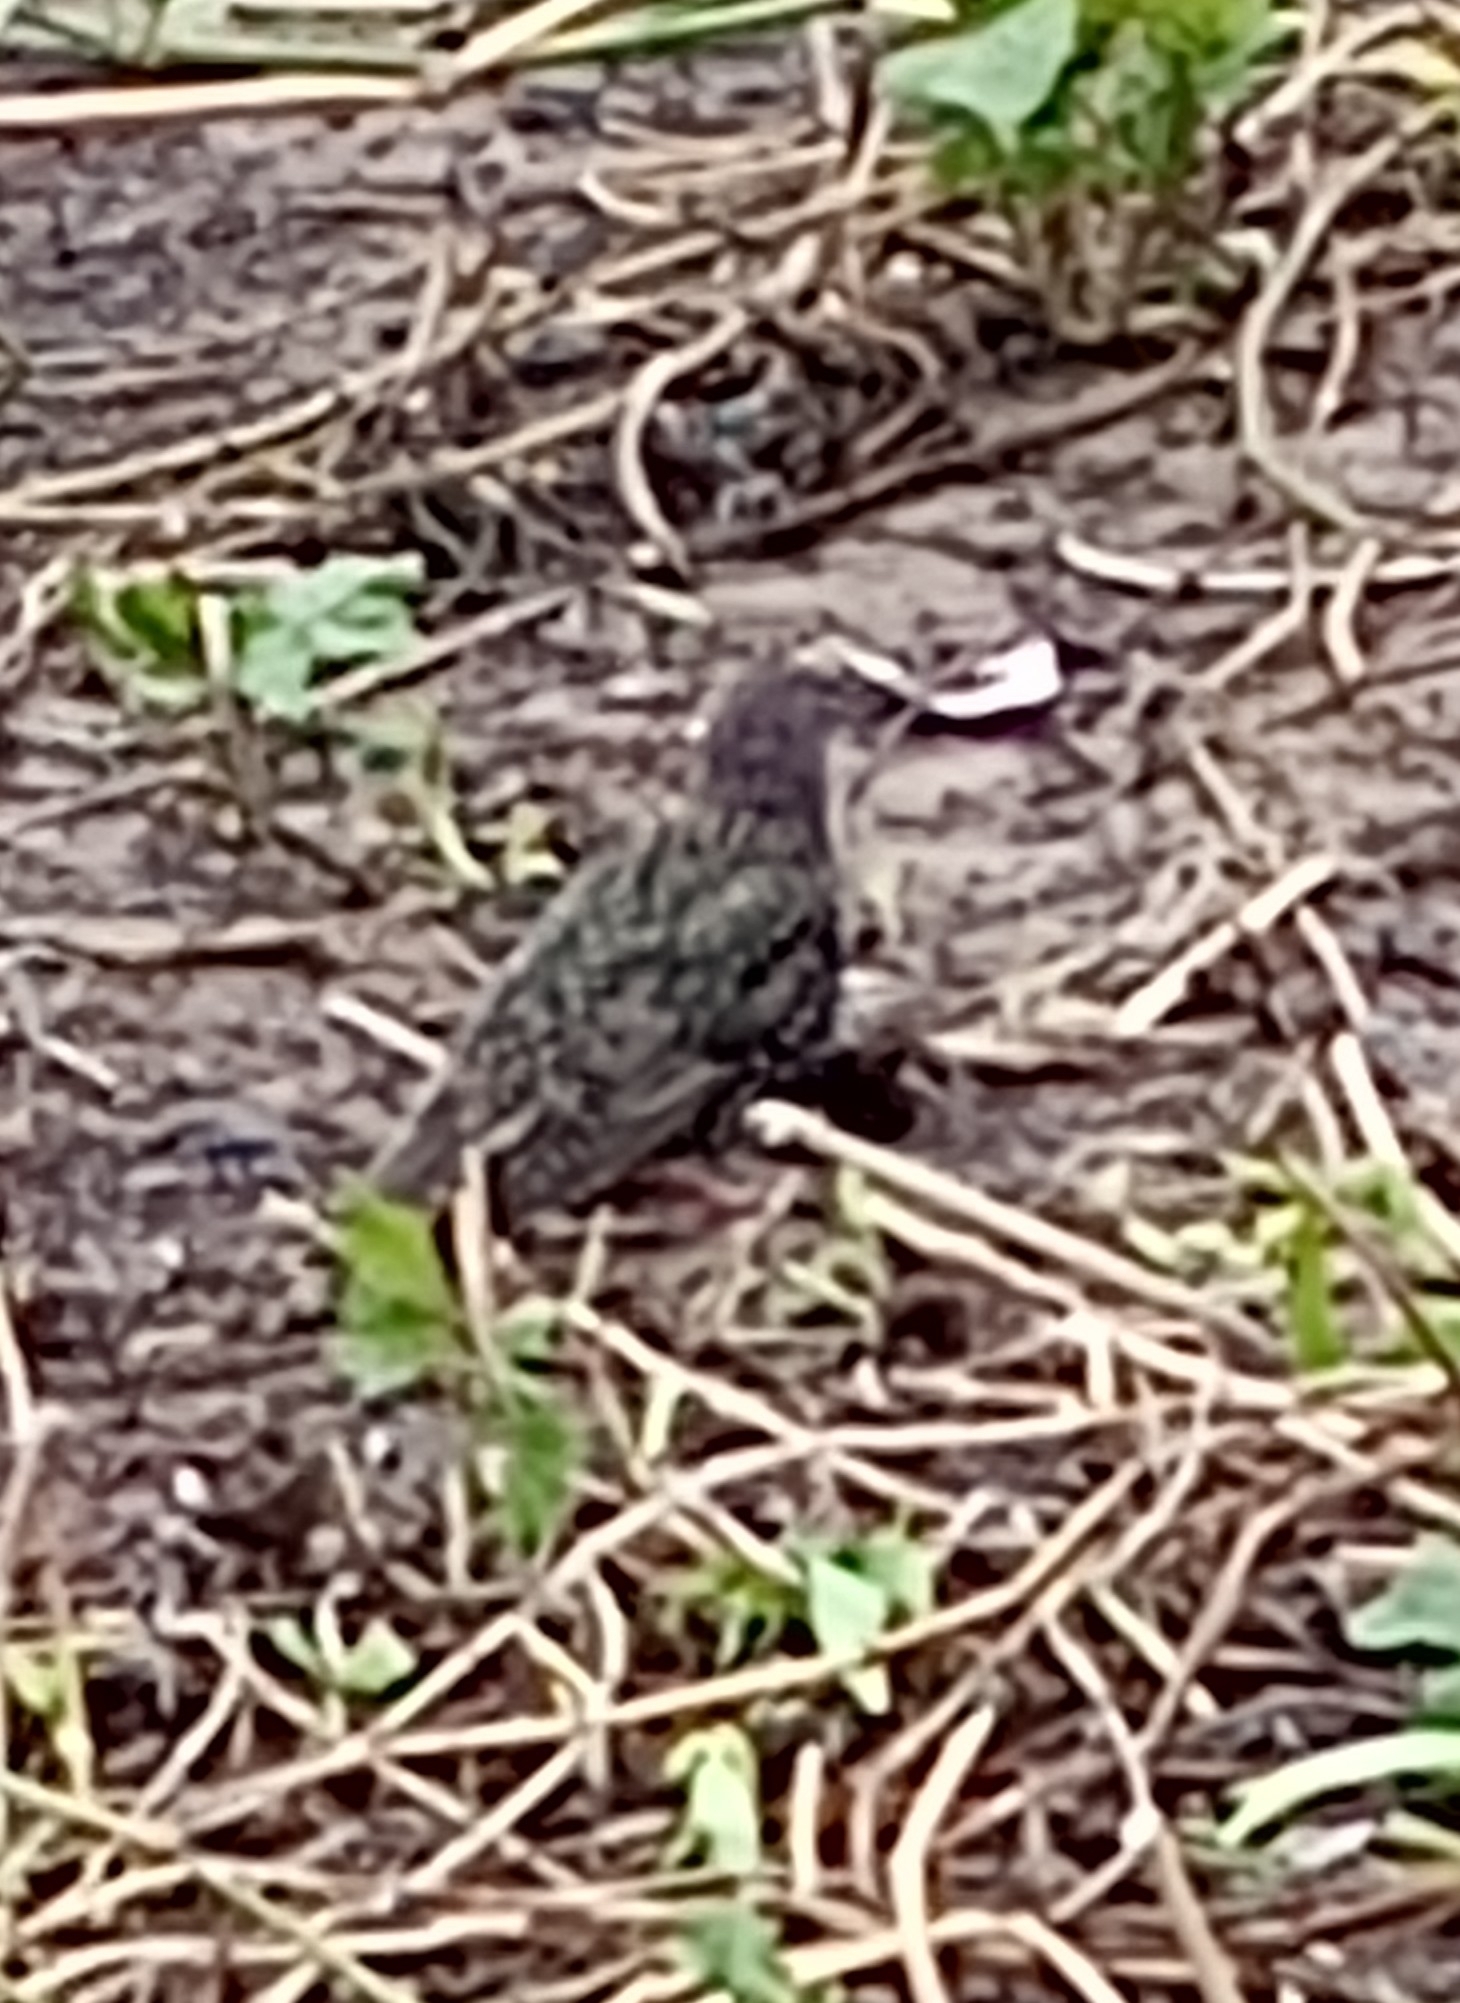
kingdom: Animalia
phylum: Chordata
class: Aves
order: Passeriformes
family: Sturnidae
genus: Sturnus
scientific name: Sturnus vulgaris
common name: Common starling
